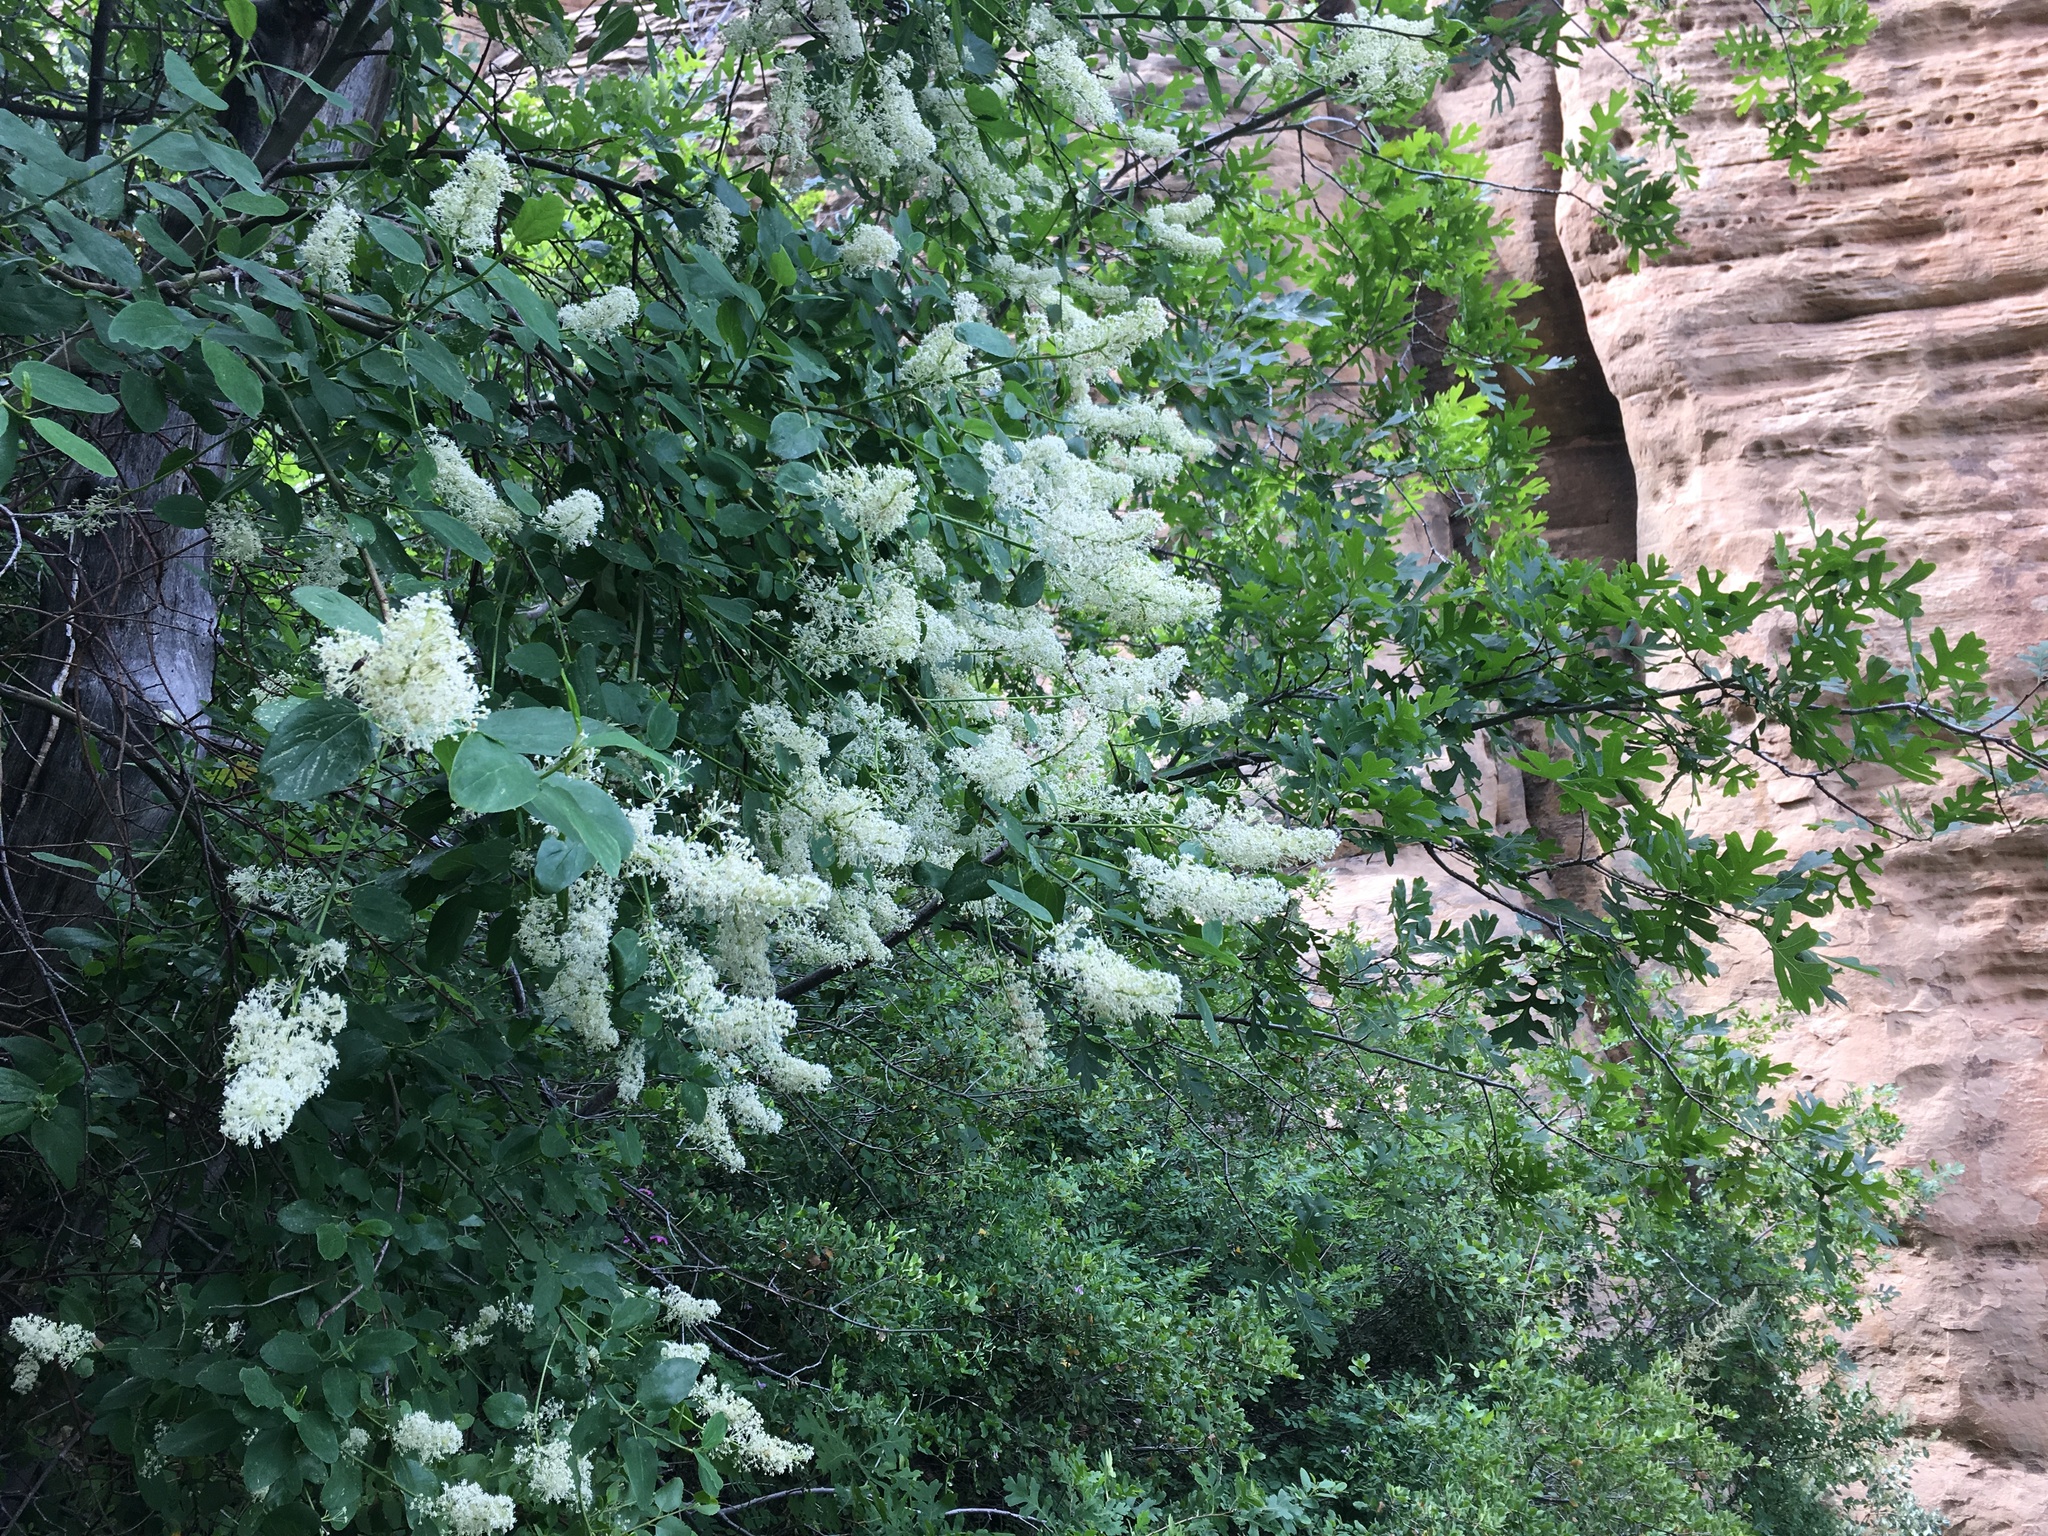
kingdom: Plantae
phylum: Tracheophyta
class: Magnoliopsida
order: Rosales
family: Rhamnaceae
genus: Ceanothus
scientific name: Ceanothus integerrimus
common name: Deerbrush ceanothus
